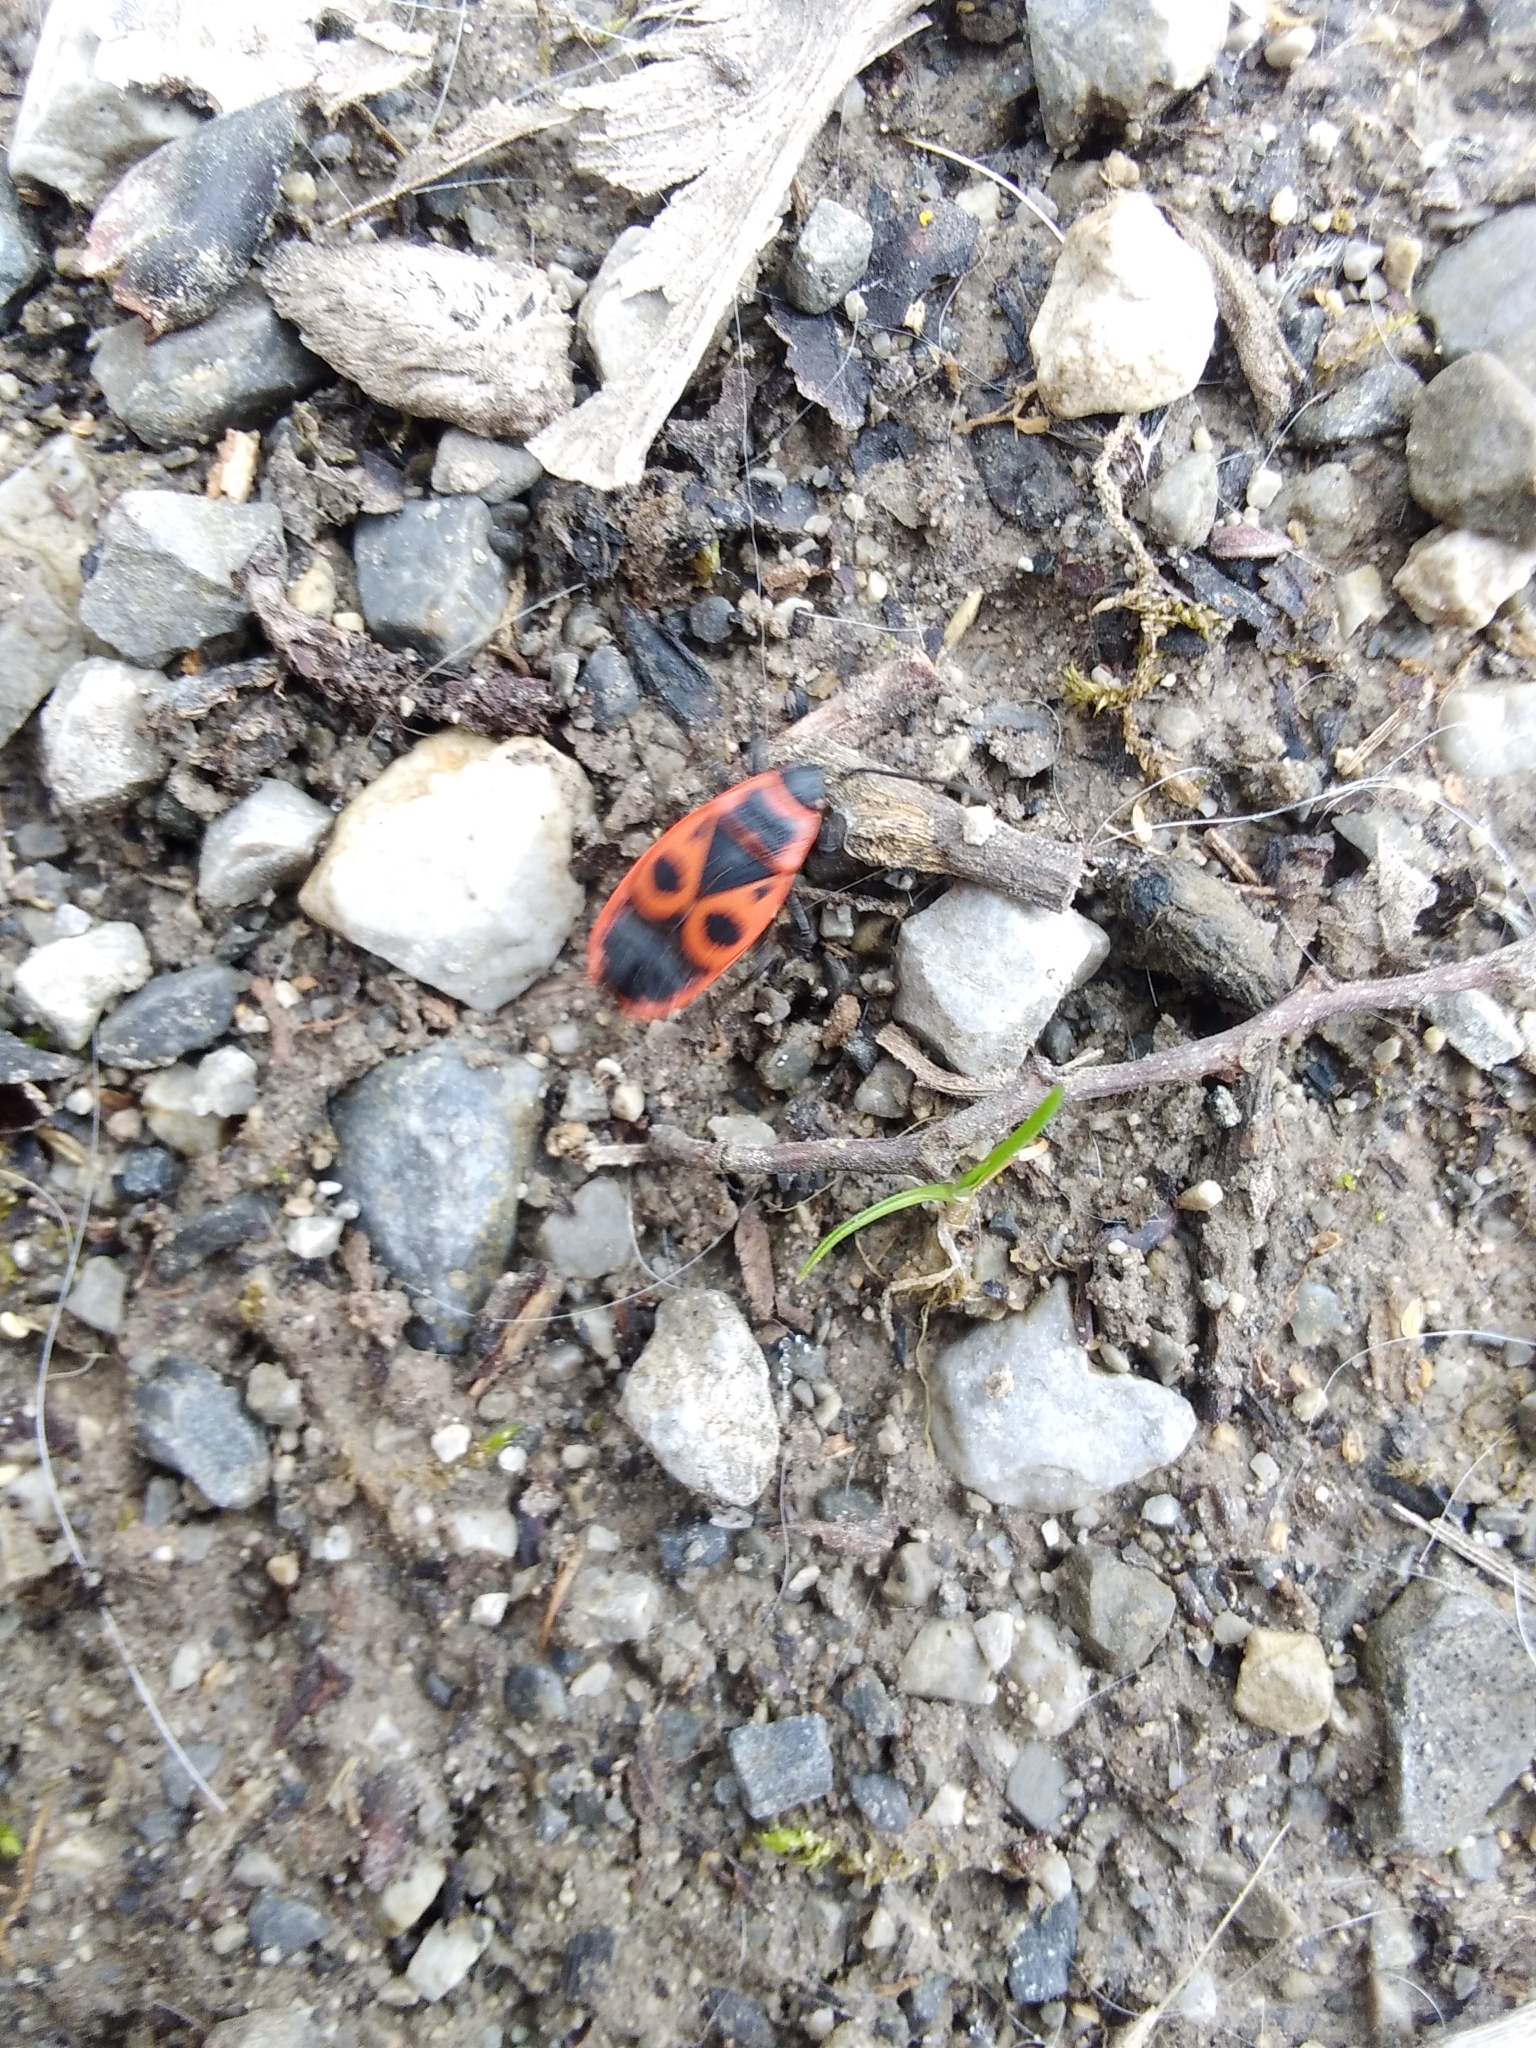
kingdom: Animalia
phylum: Arthropoda
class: Insecta
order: Hemiptera
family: Pyrrhocoridae
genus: Pyrrhocoris
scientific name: Pyrrhocoris apterus
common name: Firebug
